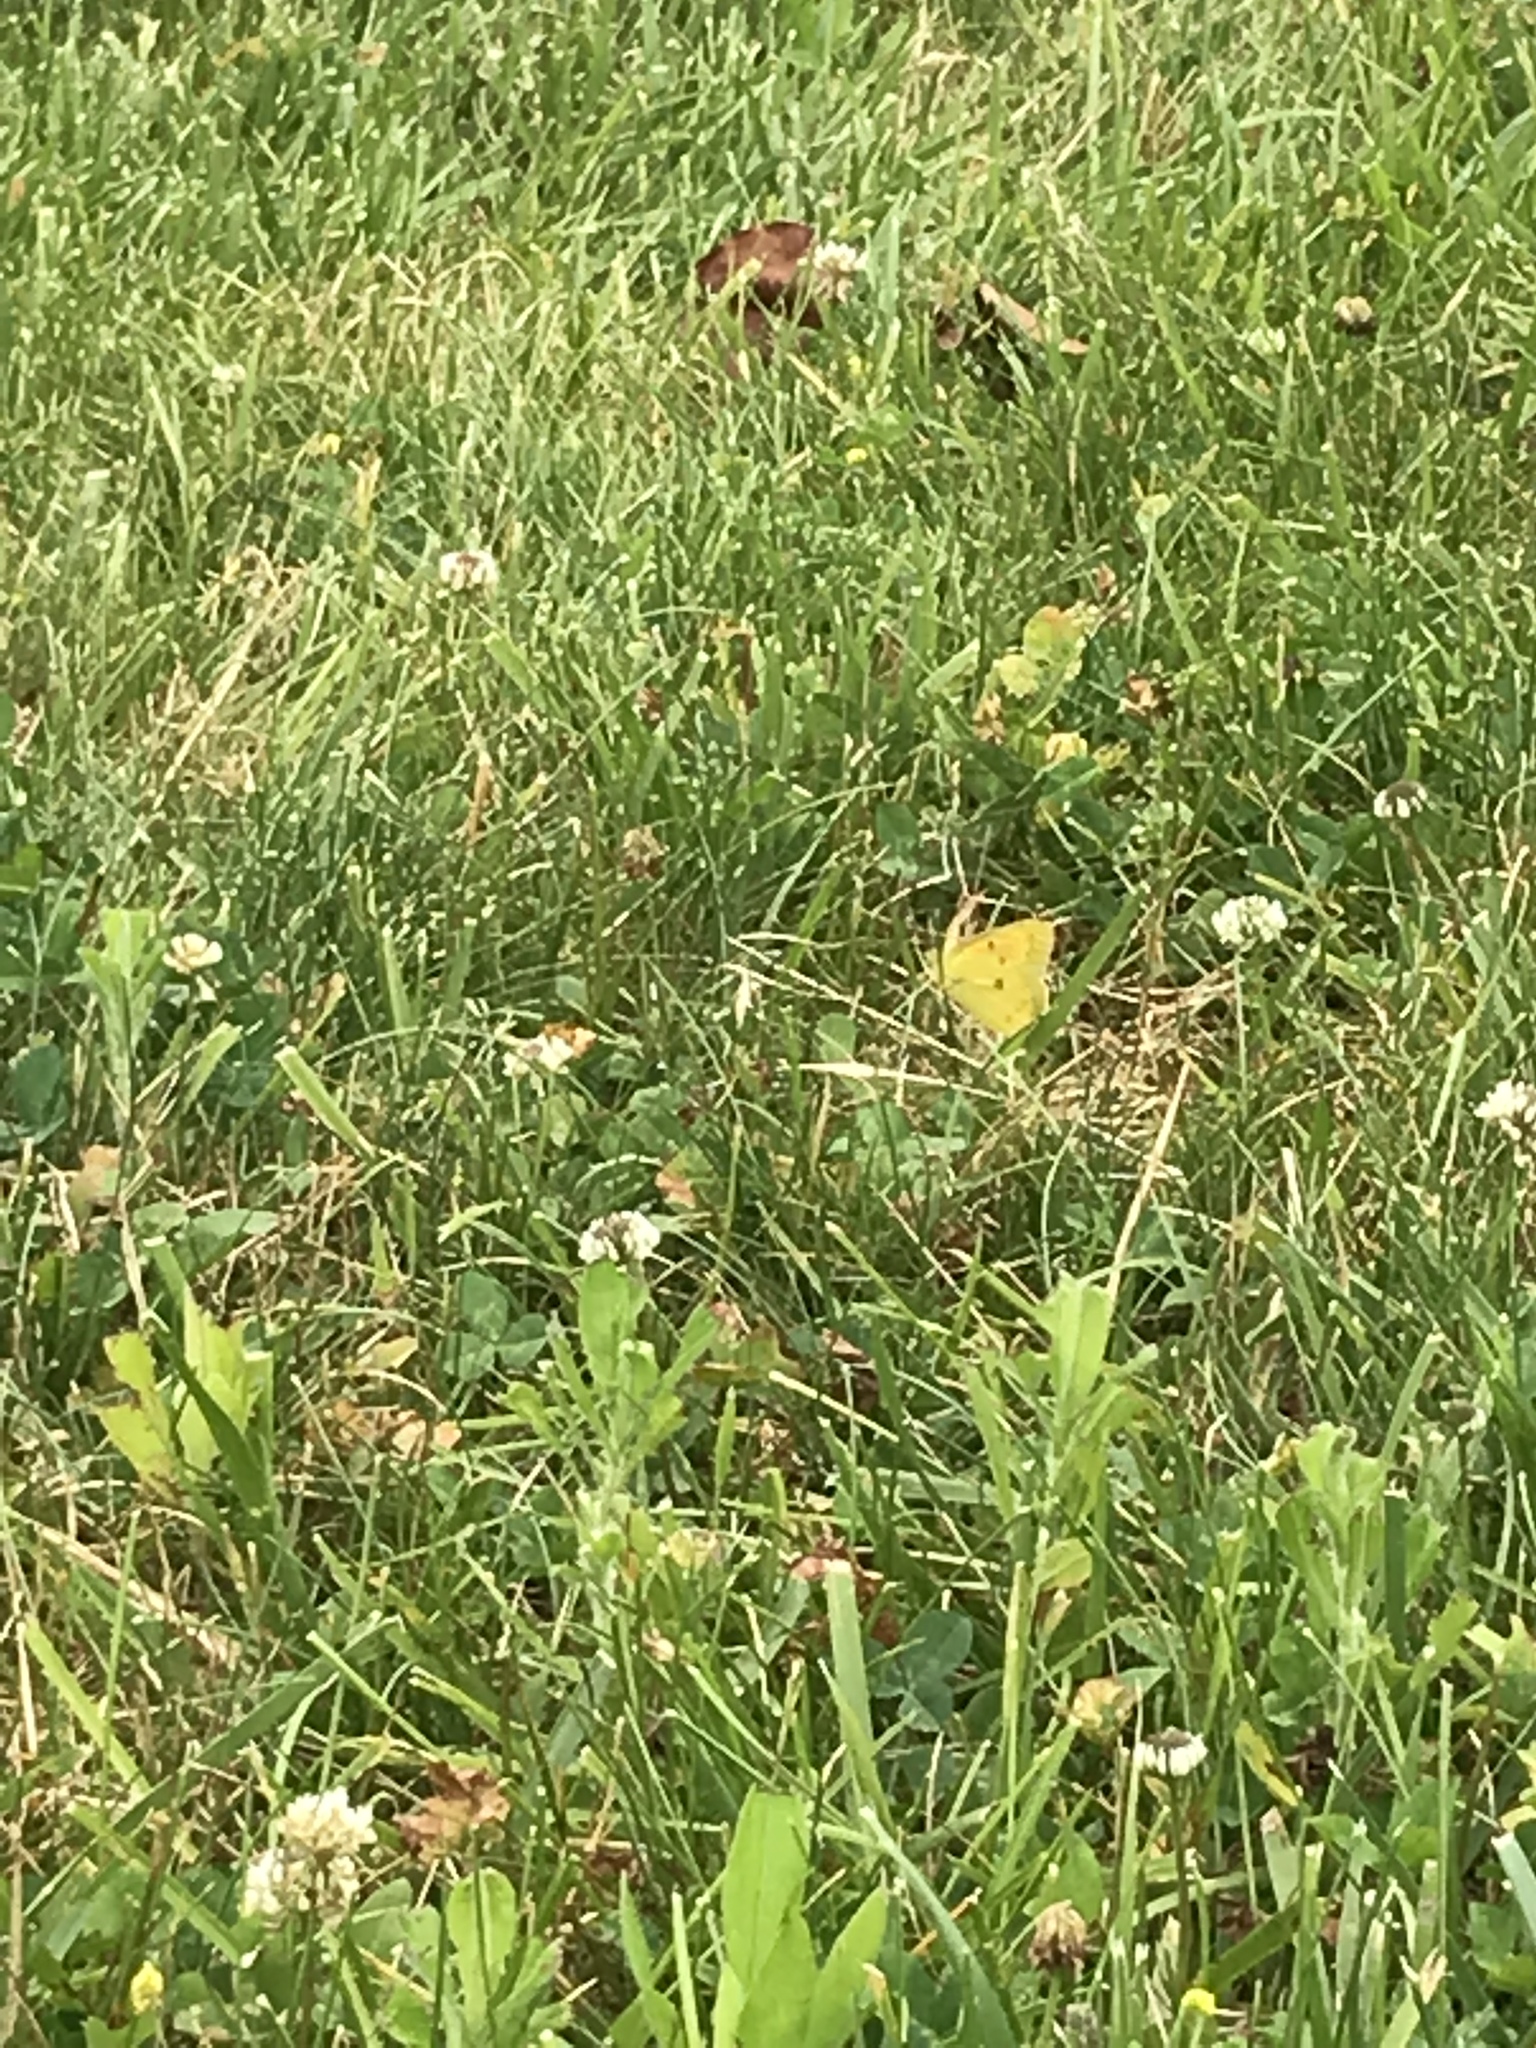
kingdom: Animalia
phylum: Arthropoda
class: Insecta
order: Lepidoptera
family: Pieridae
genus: Colias
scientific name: Colias eurytheme
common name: Alfalfa butterfly
